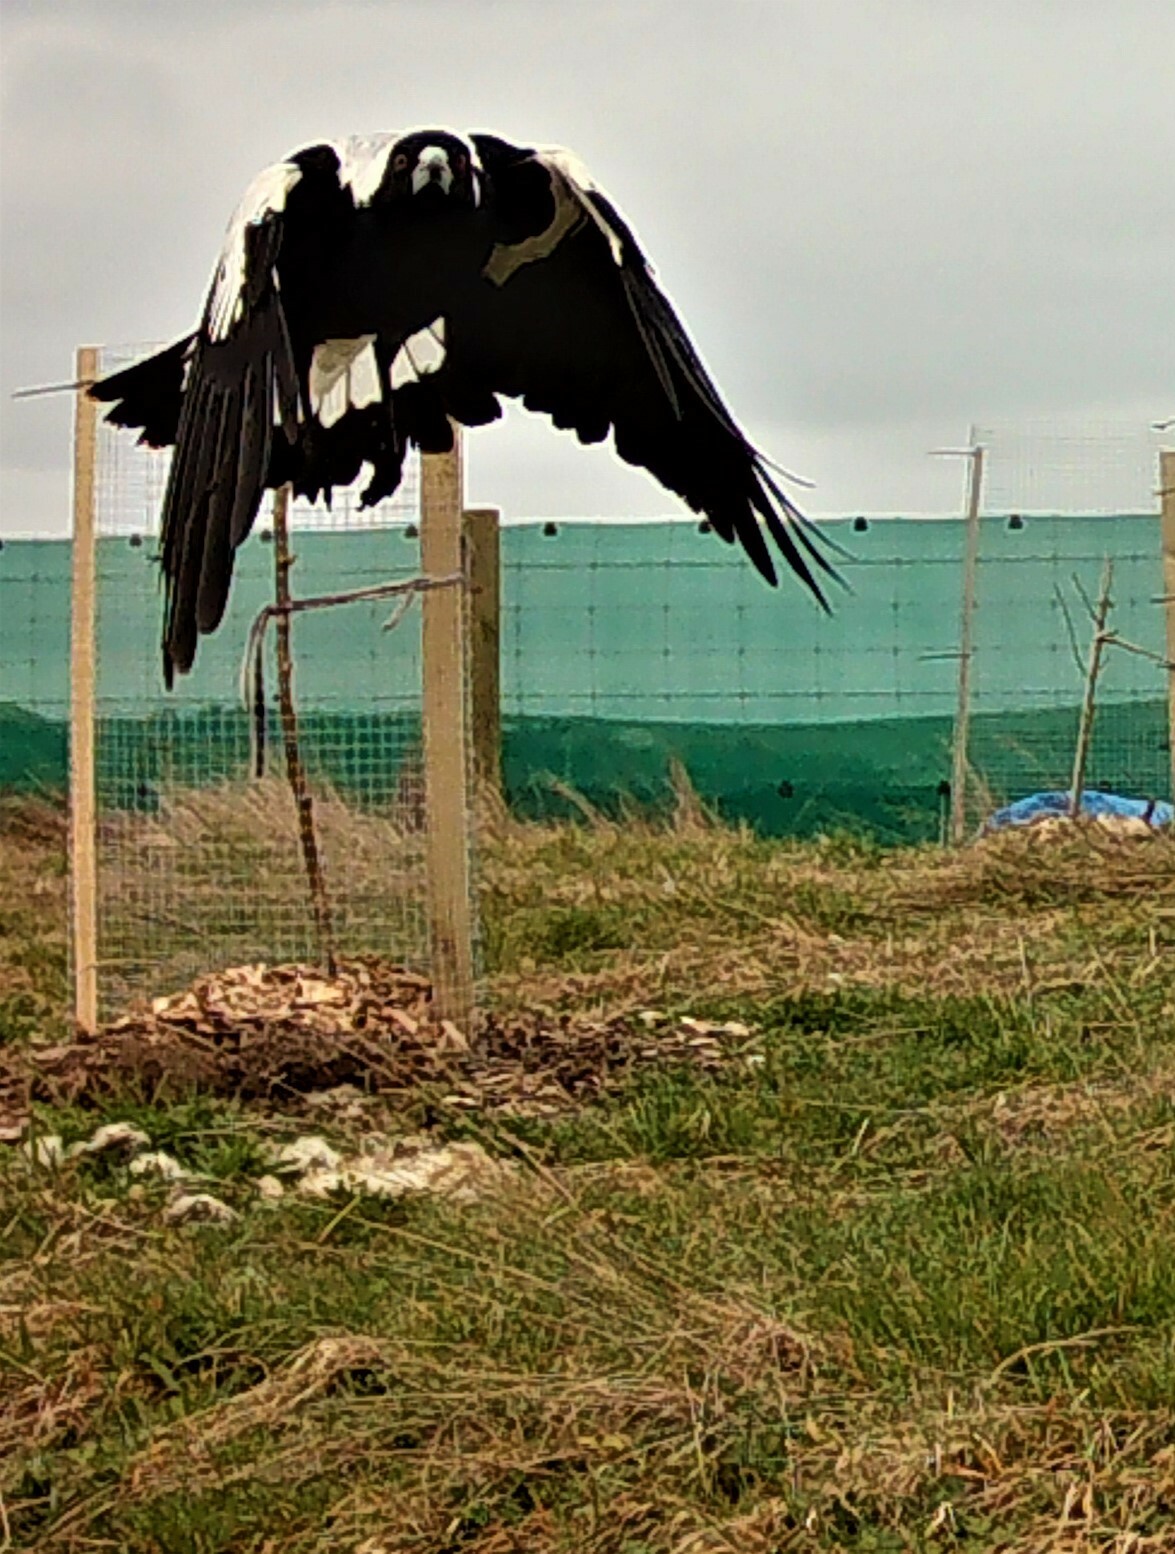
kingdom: Animalia
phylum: Chordata
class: Aves
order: Passeriformes
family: Cracticidae
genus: Gymnorhina
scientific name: Gymnorhina tibicen
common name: Australian magpie
